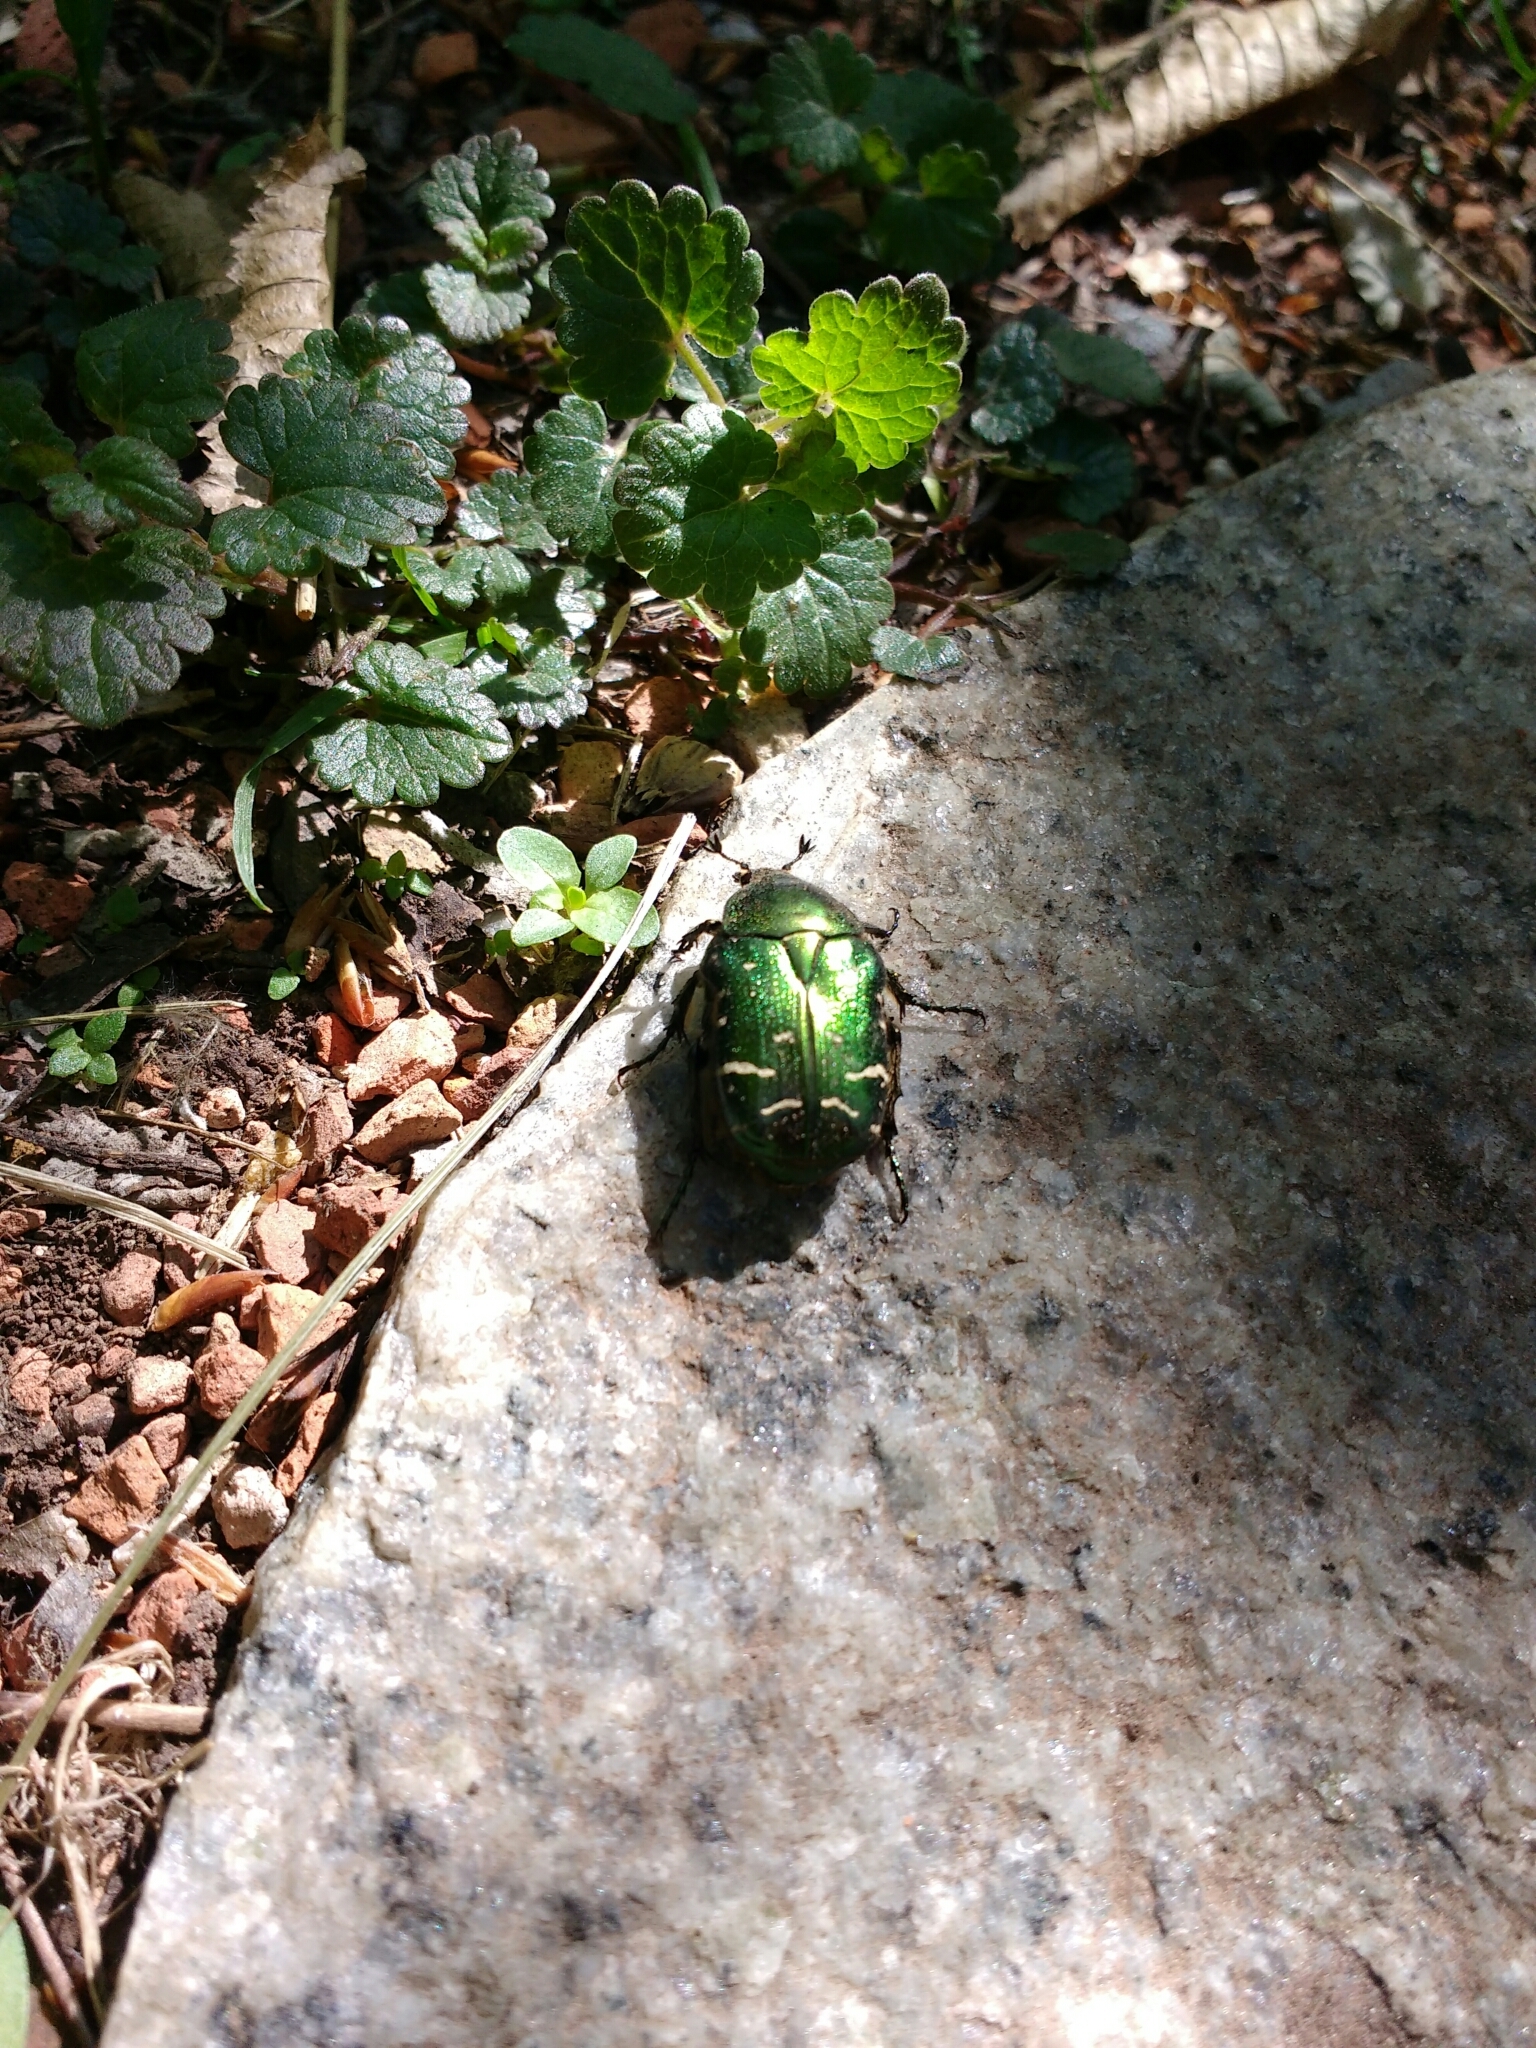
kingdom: Animalia
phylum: Arthropoda
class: Insecta
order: Coleoptera
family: Scarabaeidae
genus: Cetonia
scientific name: Cetonia aurata
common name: Rose chafer
